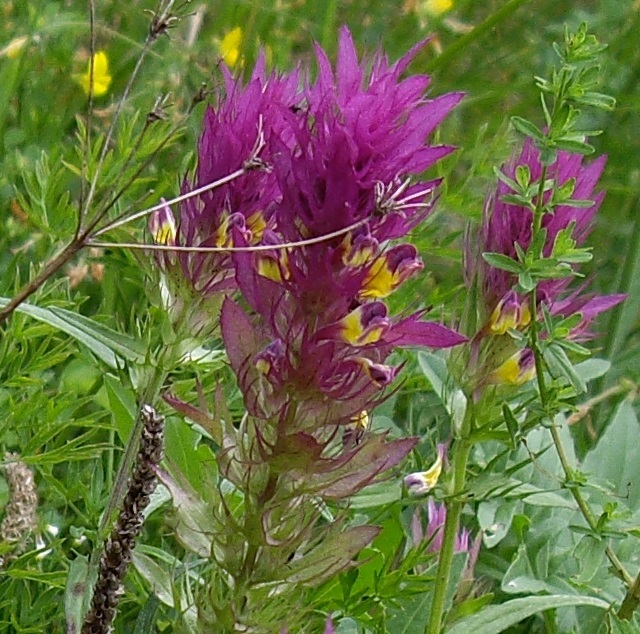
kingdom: Plantae
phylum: Tracheophyta
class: Magnoliopsida
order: Lamiales
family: Orobanchaceae
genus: Melampyrum
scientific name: Melampyrum arvense
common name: Field cow-wheat
